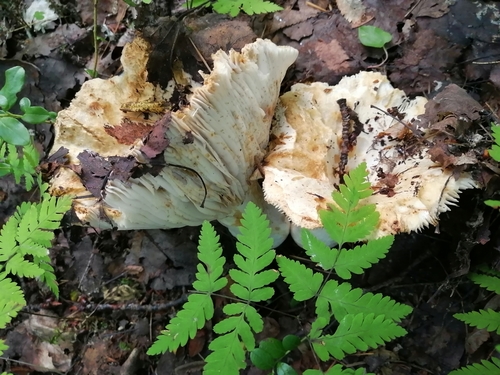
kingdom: Fungi
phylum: Basidiomycota
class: Agaricomycetes
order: Russulales
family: Russulaceae
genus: Russula
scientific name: Russula delica
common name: Milk white brittlegill
